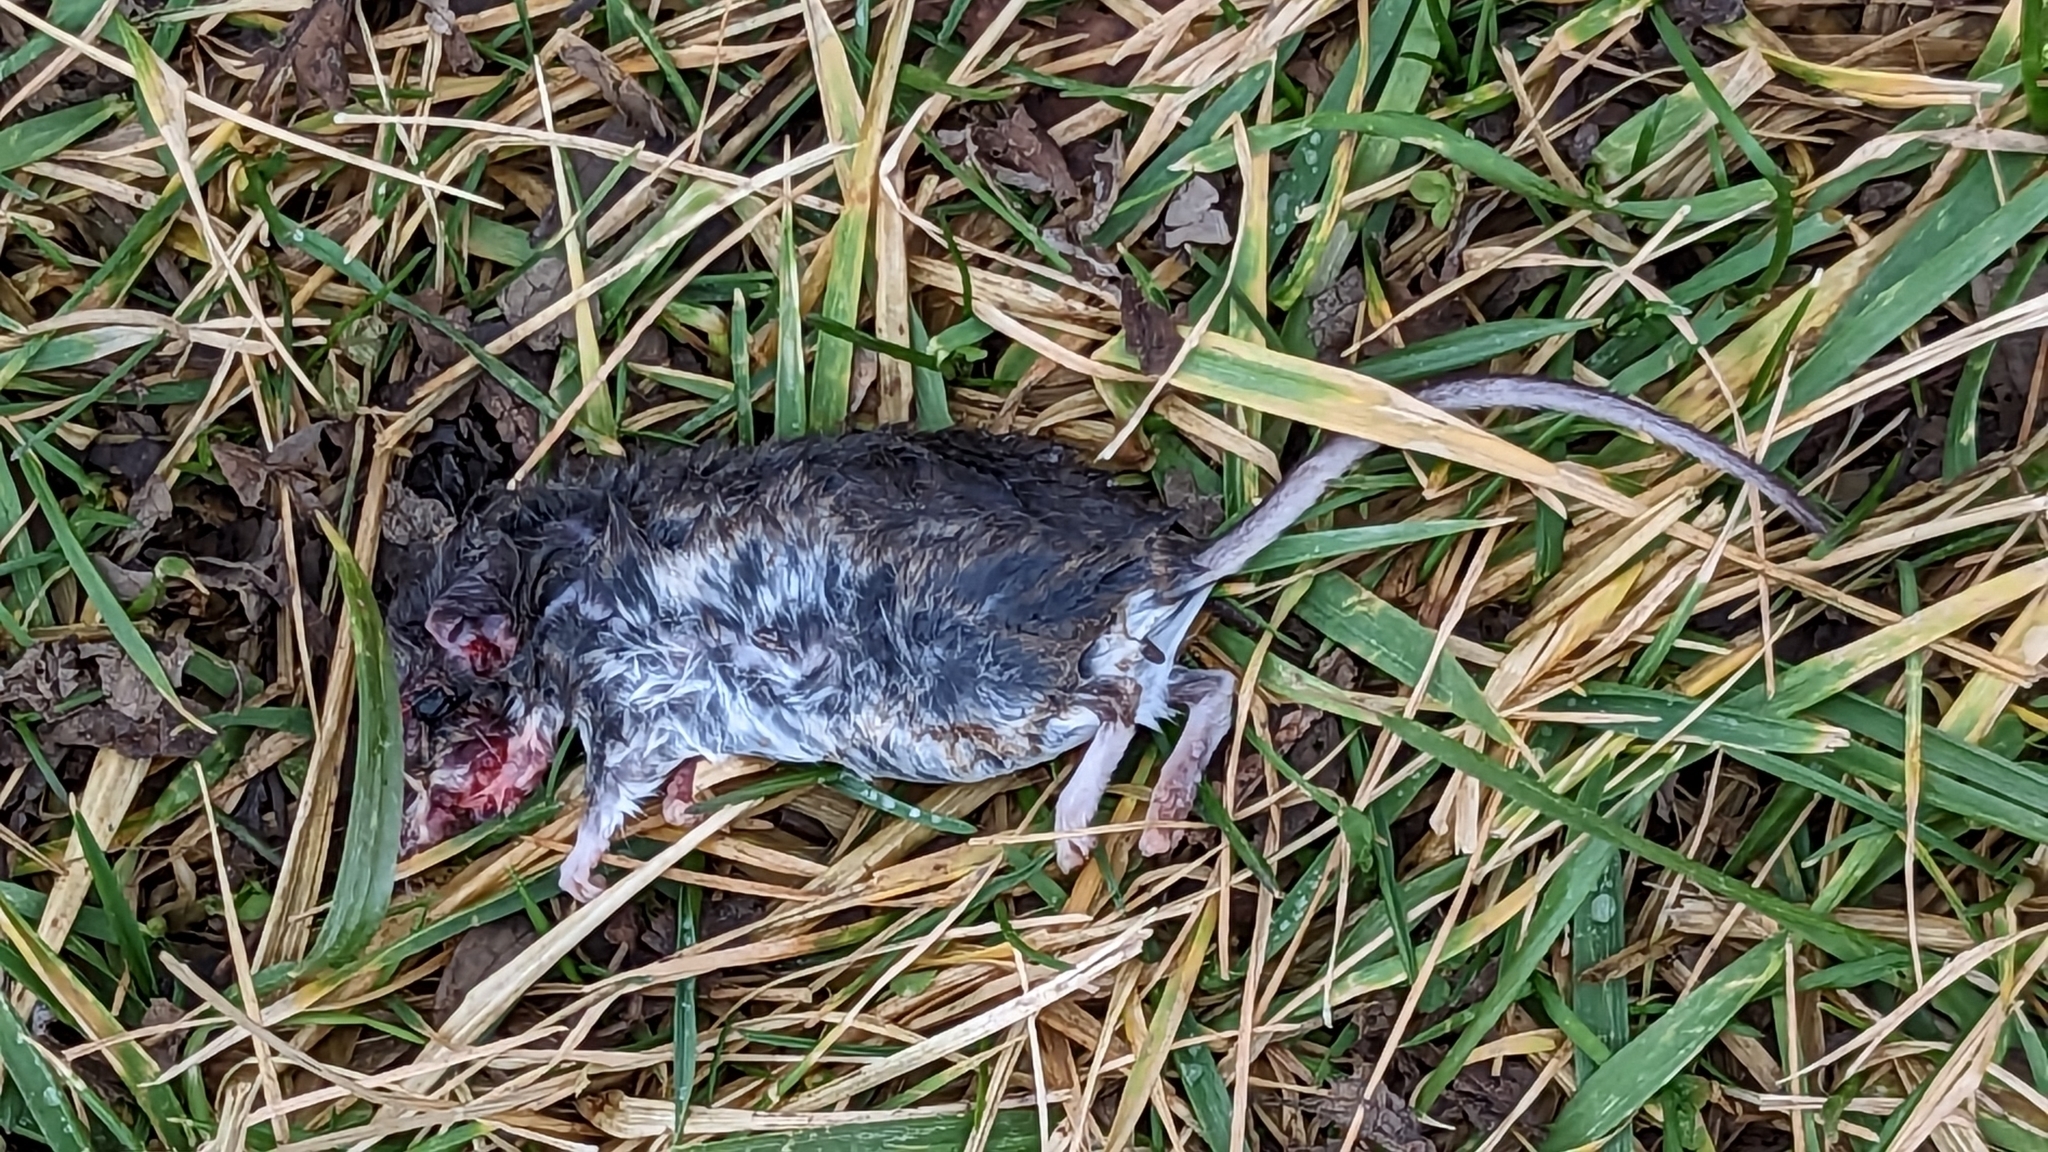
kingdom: Animalia
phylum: Chordata
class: Mammalia
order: Rodentia
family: Cricetidae
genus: Peromyscus
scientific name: Peromyscus leucopus
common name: White-footed deermouse
